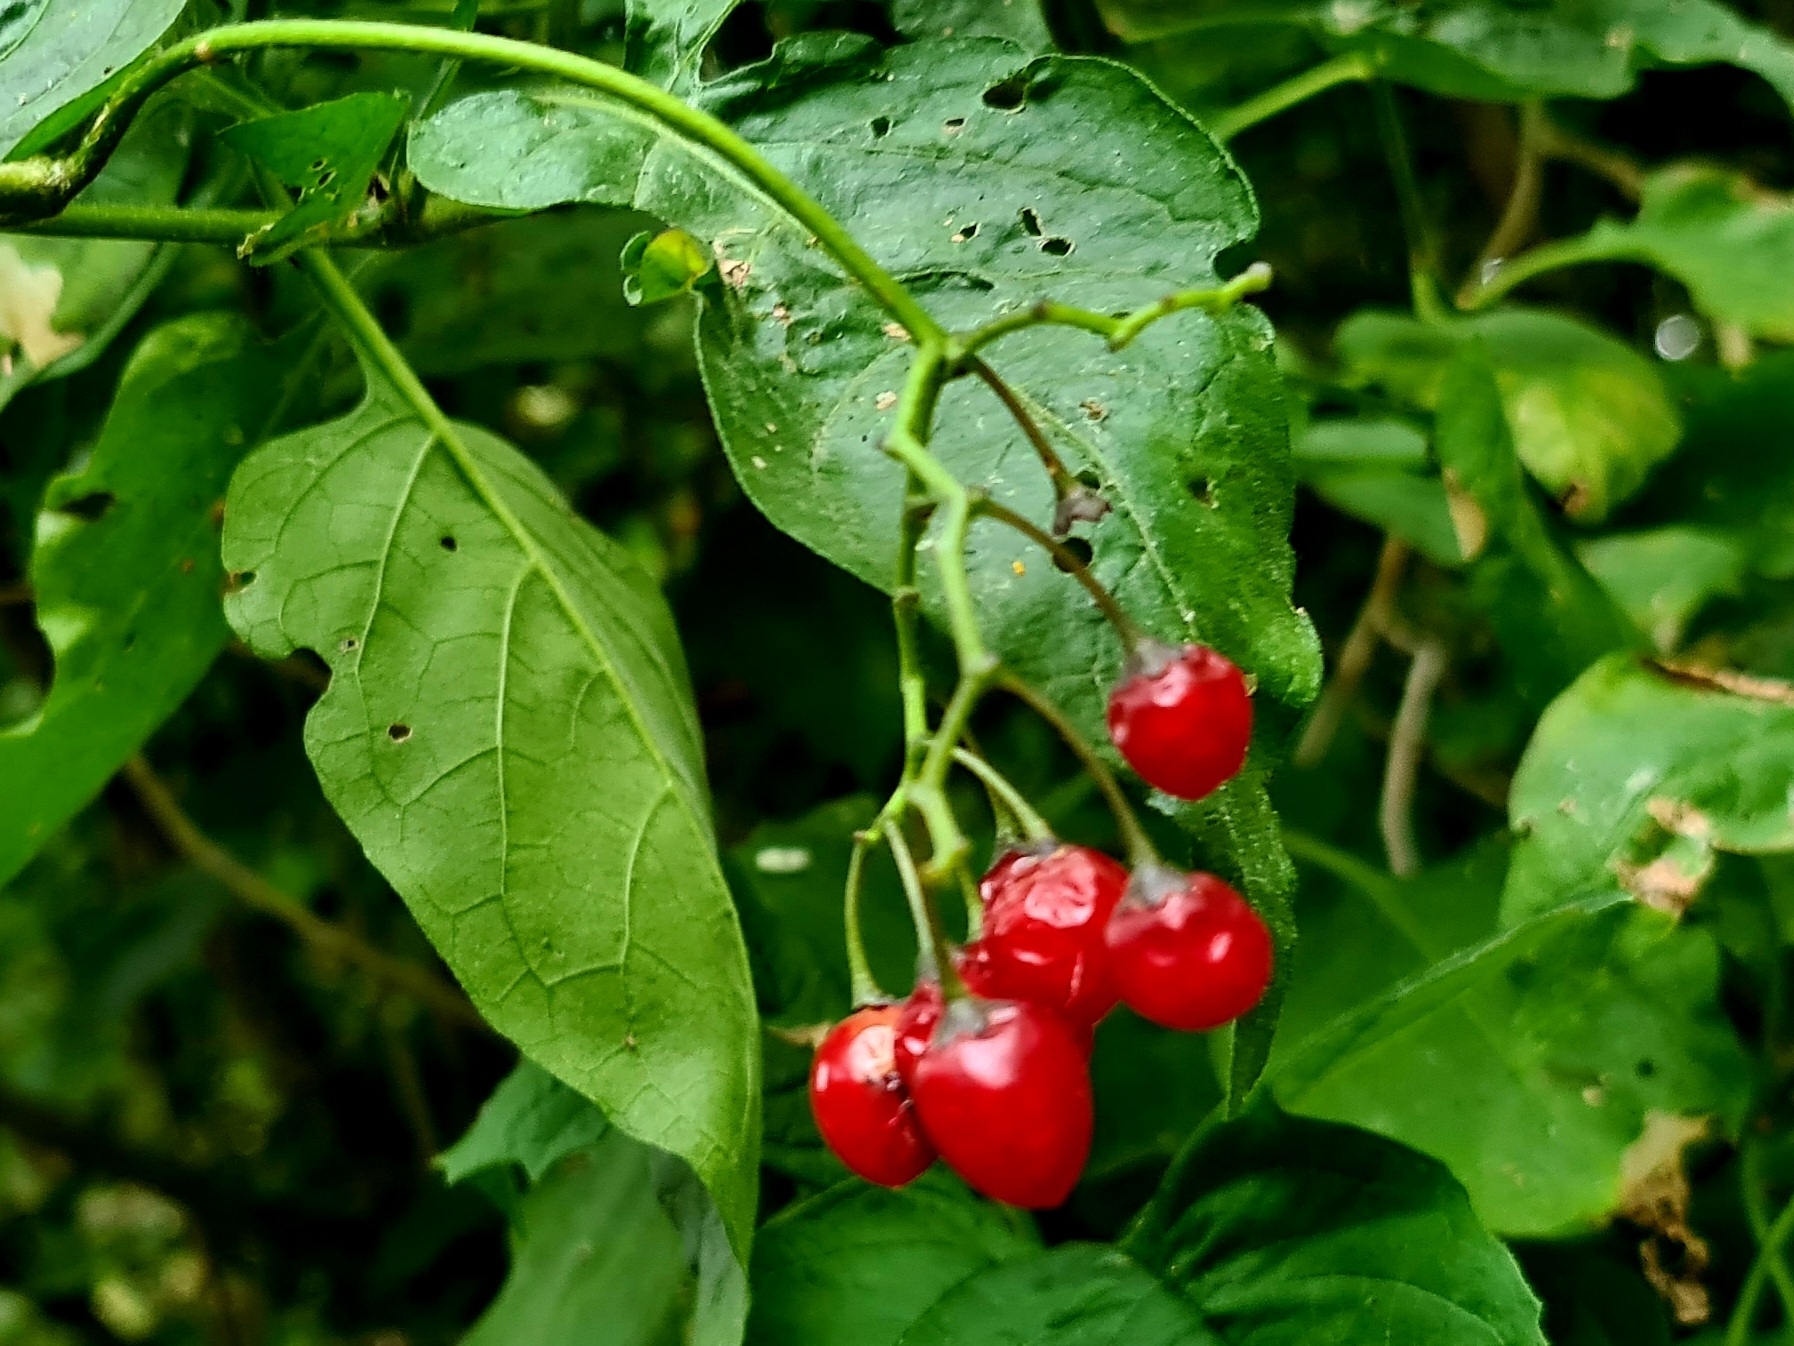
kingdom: Plantae
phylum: Tracheophyta
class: Magnoliopsida
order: Solanales
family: Solanaceae
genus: Solanum
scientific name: Solanum dulcamara
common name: Climbing nightshade
